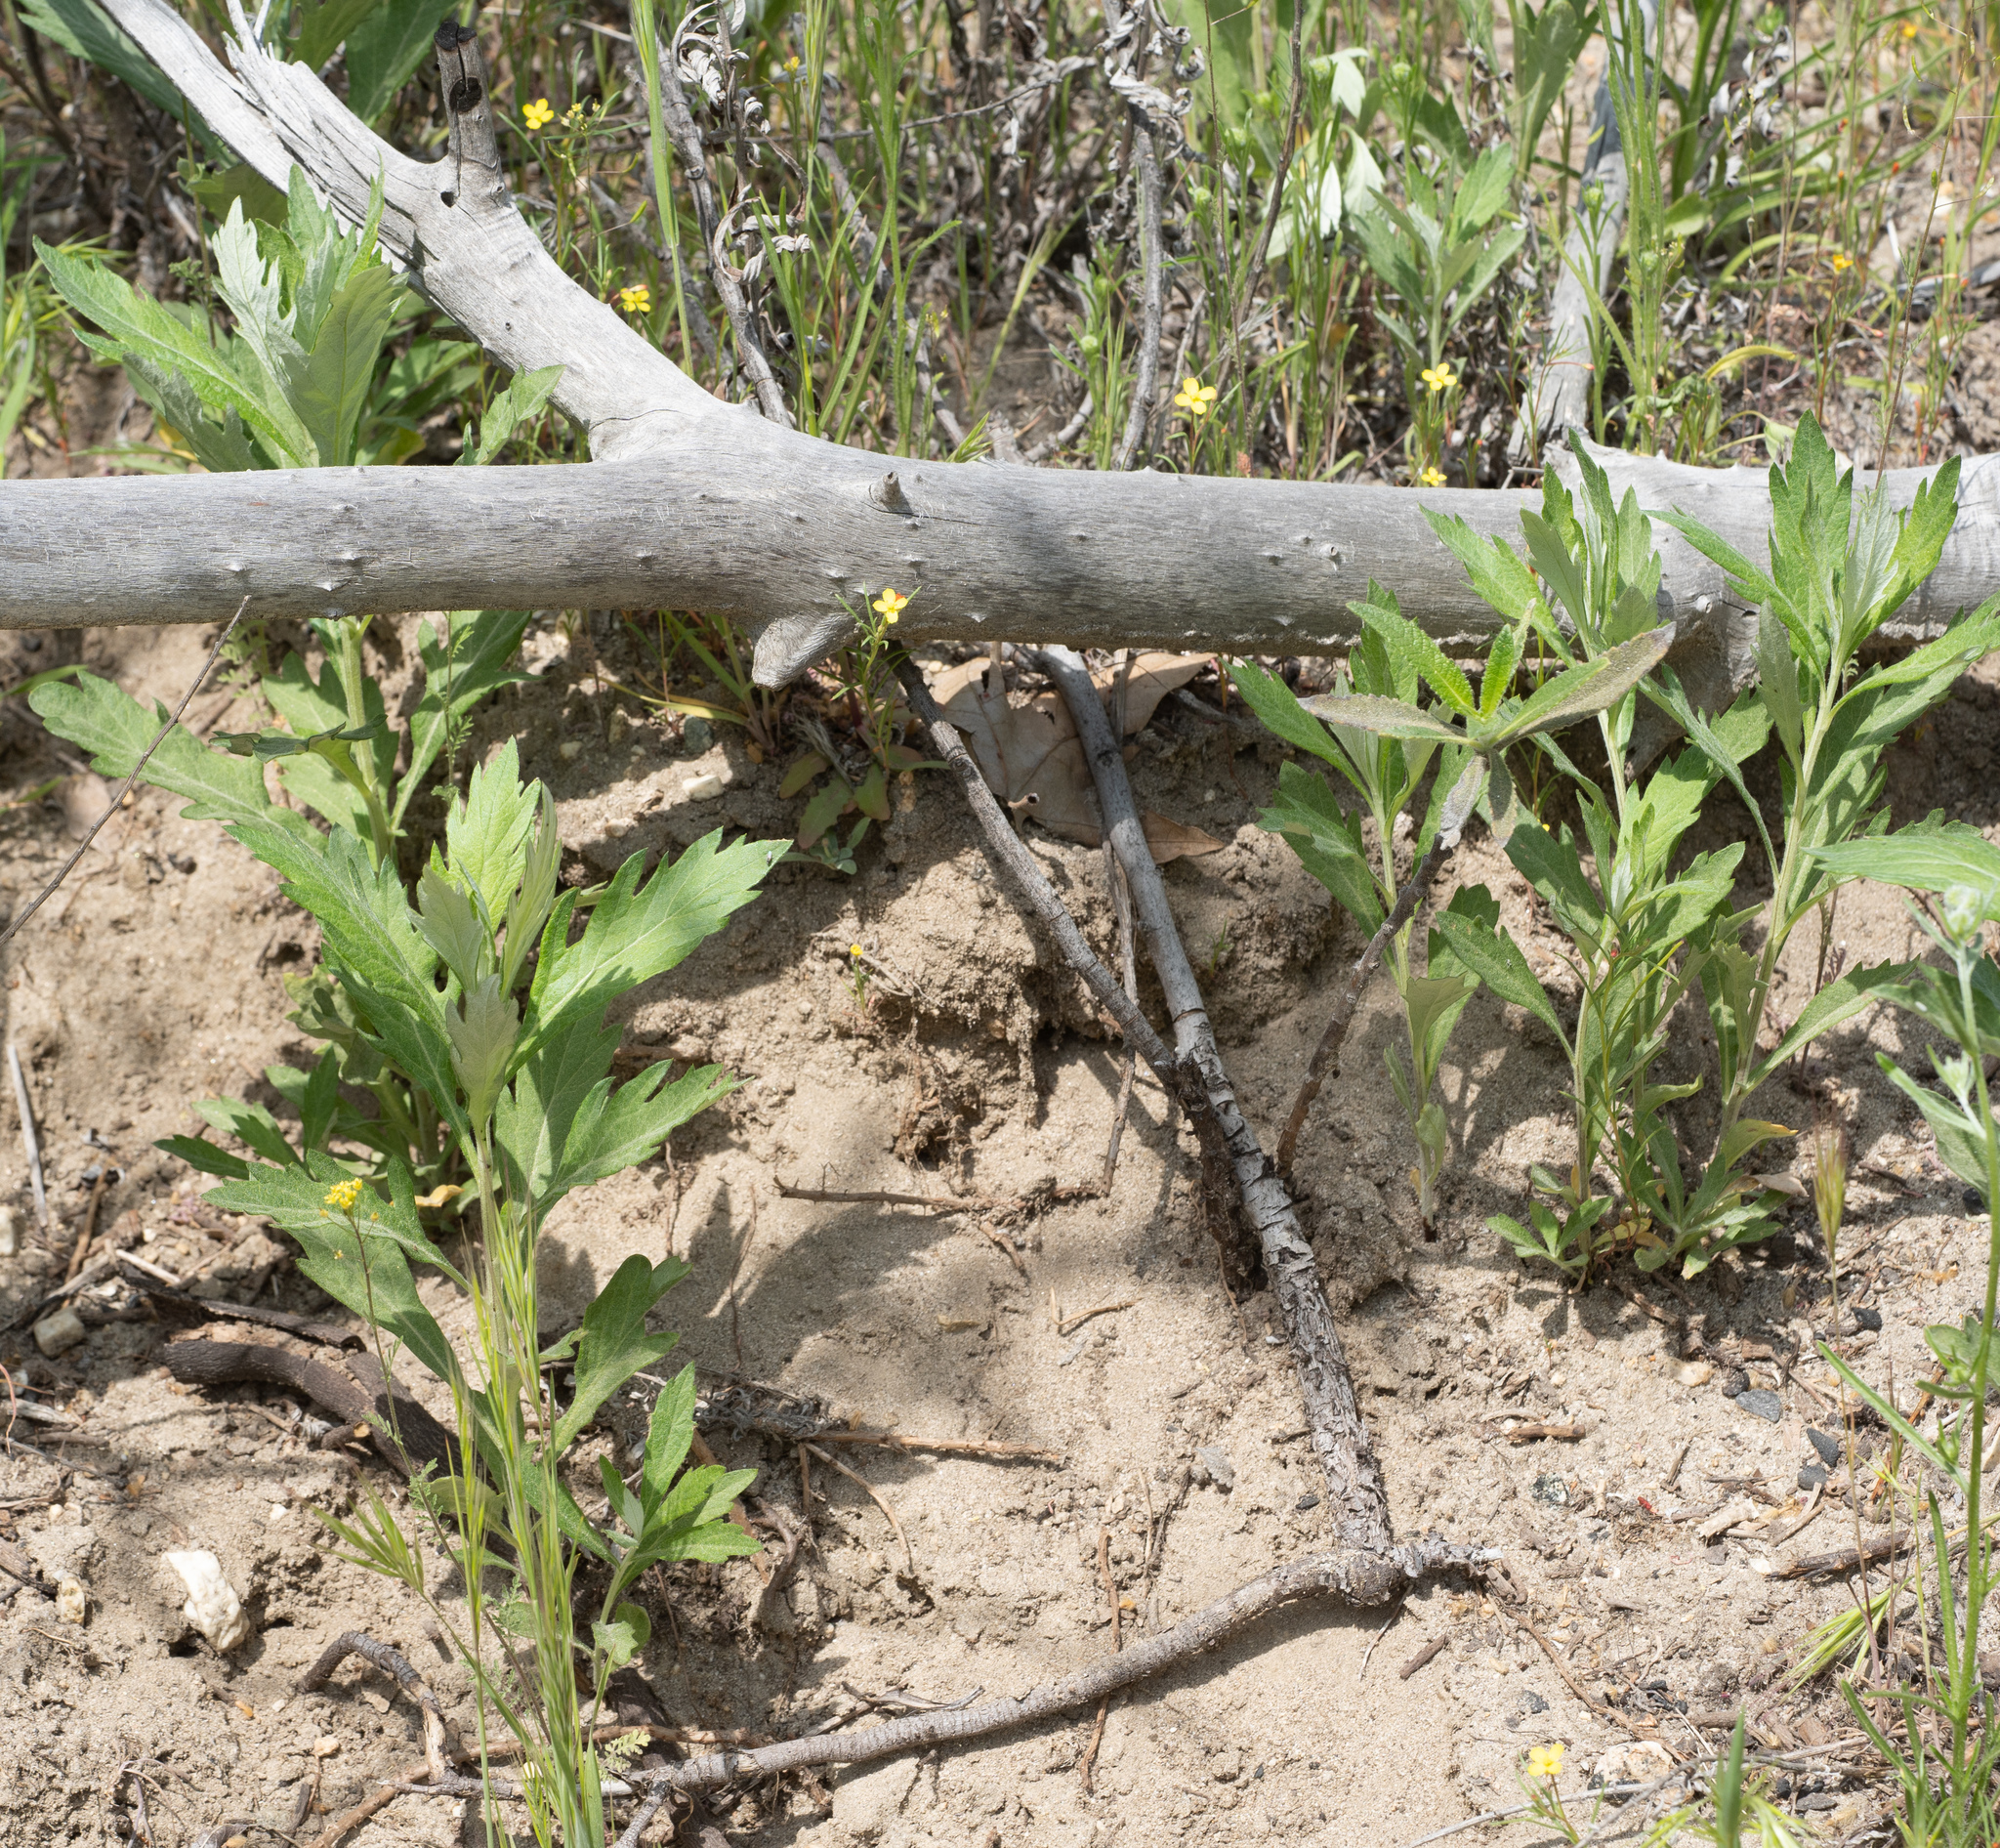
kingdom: Plantae
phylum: Tracheophyta
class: Magnoliopsida
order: Asterales
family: Asteraceae
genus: Artemisia
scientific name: Artemisia douglasiana
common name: Northwest mugwort
